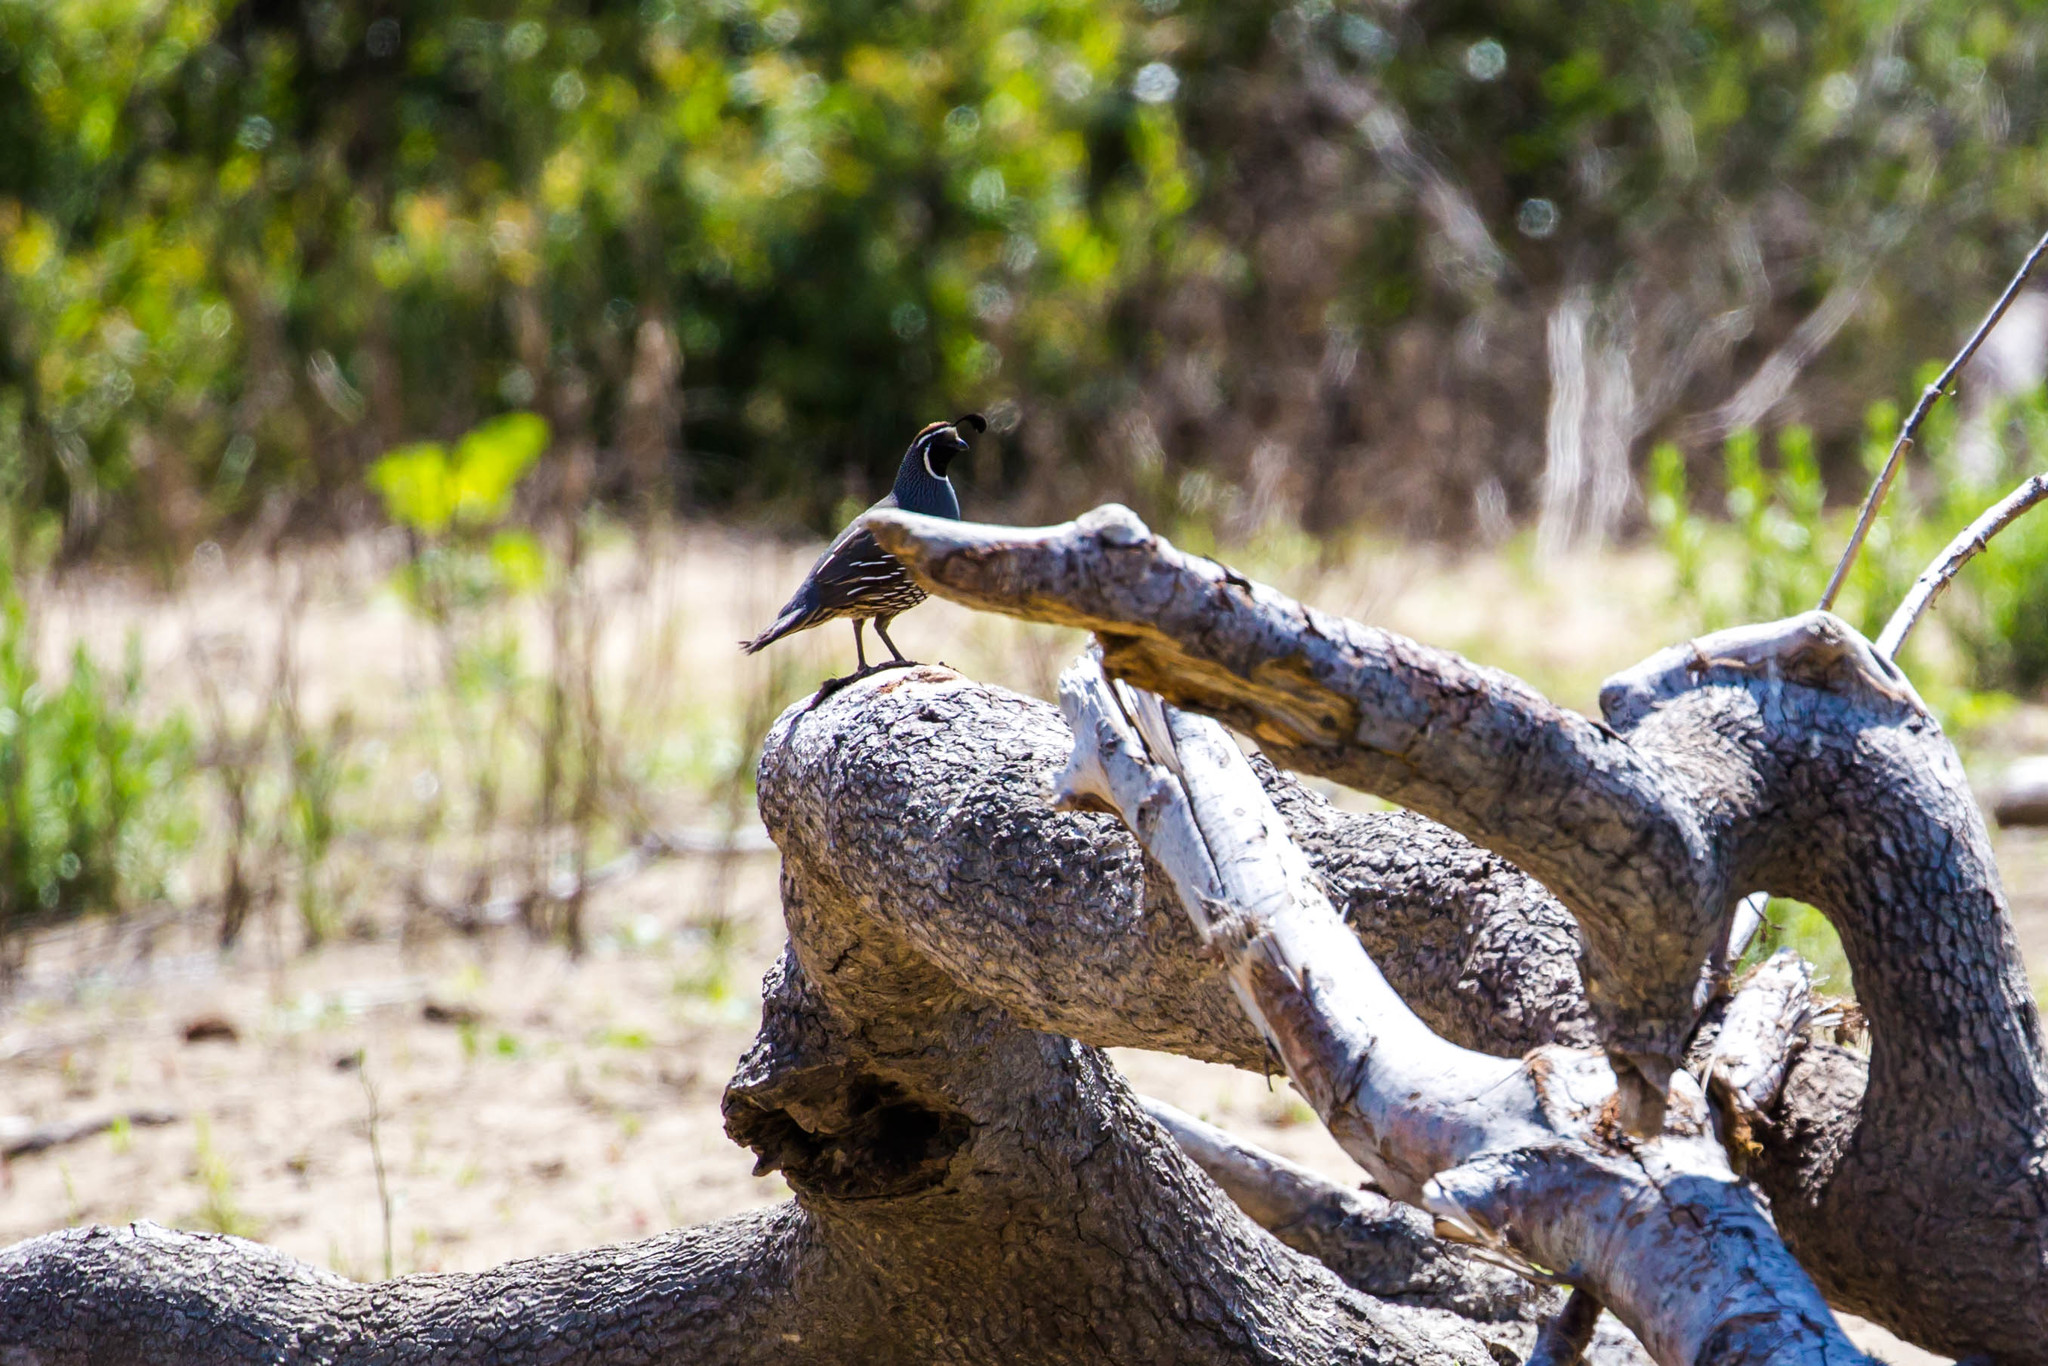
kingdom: Animalia
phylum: Chordata
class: Aves
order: Galliformes
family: Odontophoridae
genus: Callipepla
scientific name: Callipepla californica
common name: California quail
